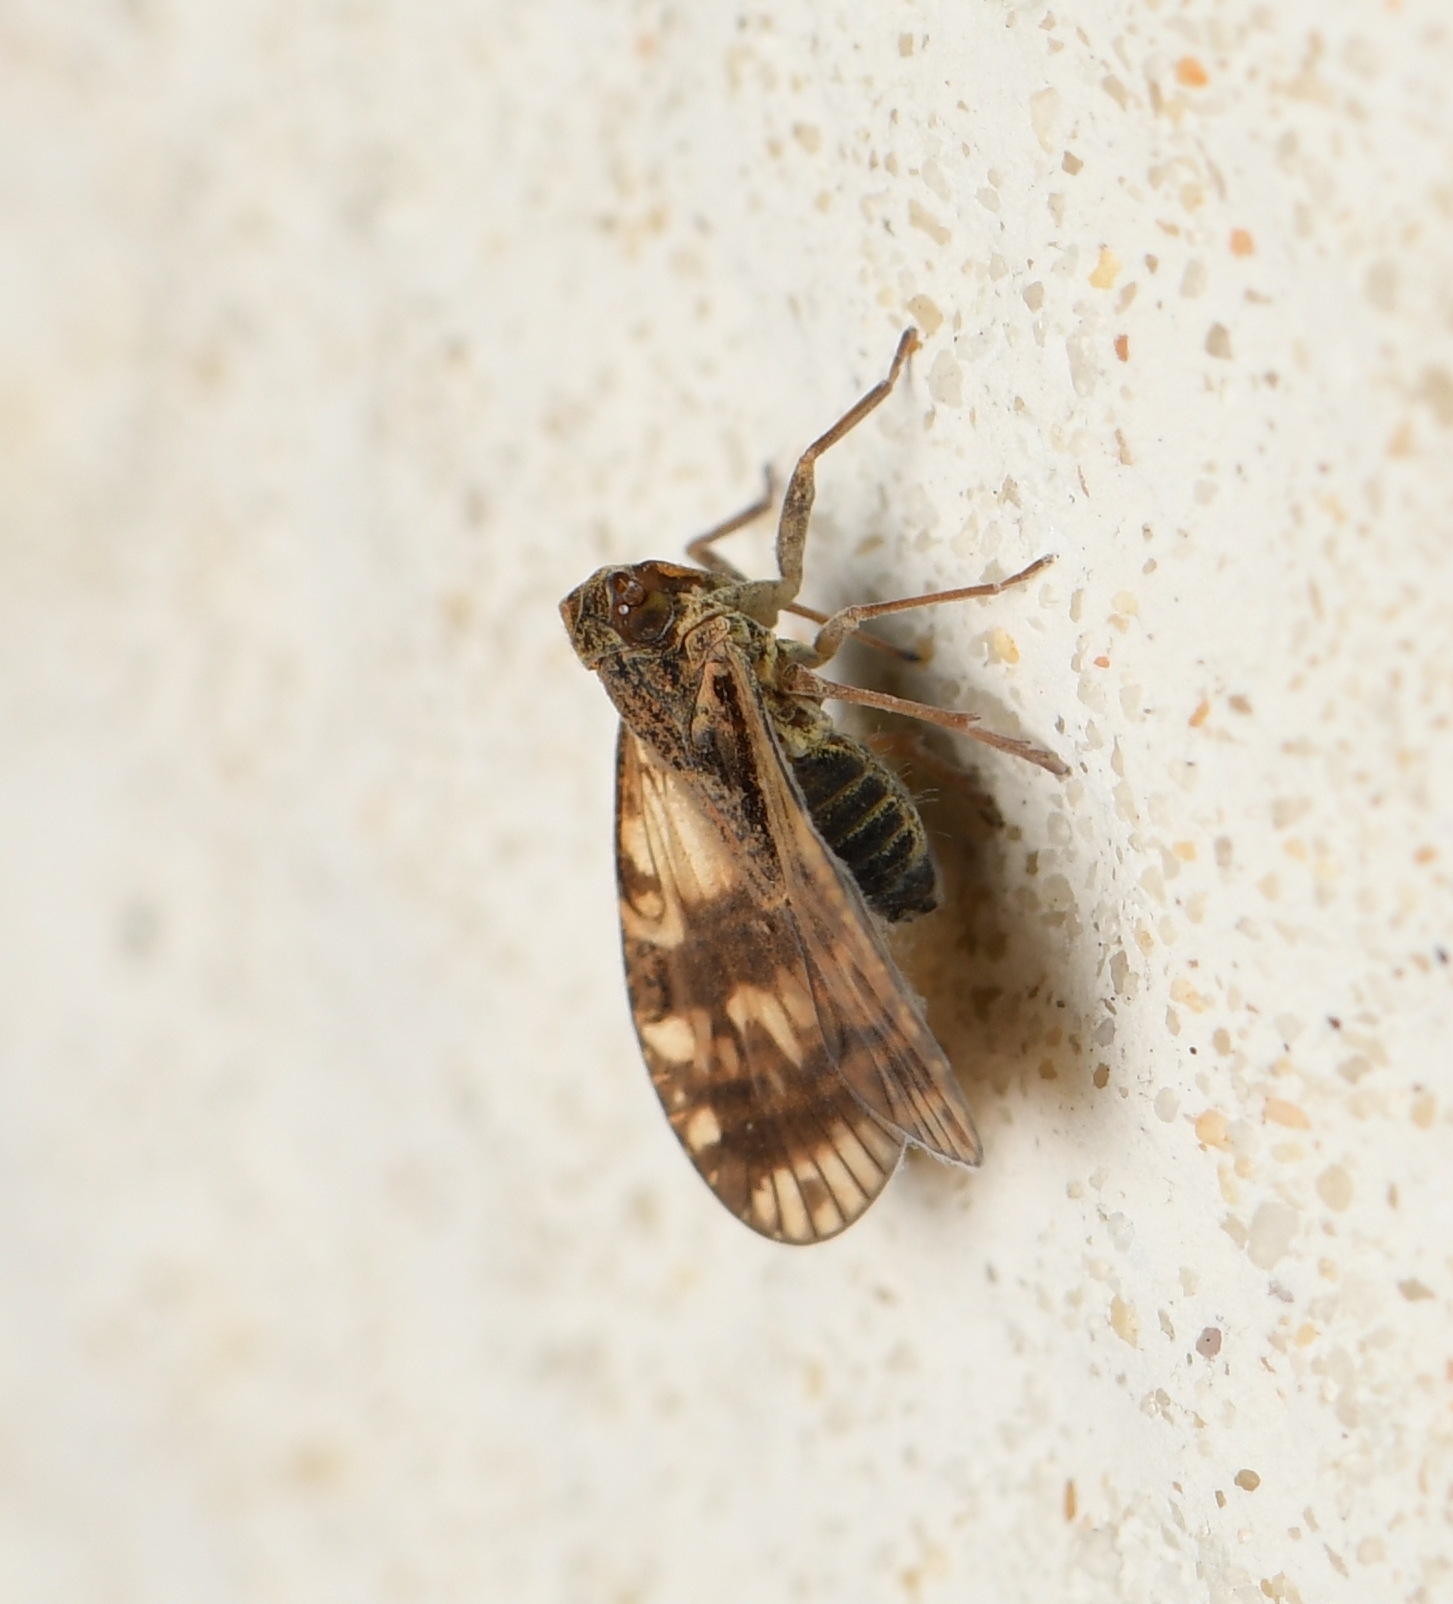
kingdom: Animalia
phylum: Arthropoda
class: Insecta
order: Hemiptera
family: Cixiidae
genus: Bothriocera
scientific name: Bothriocera transversa
